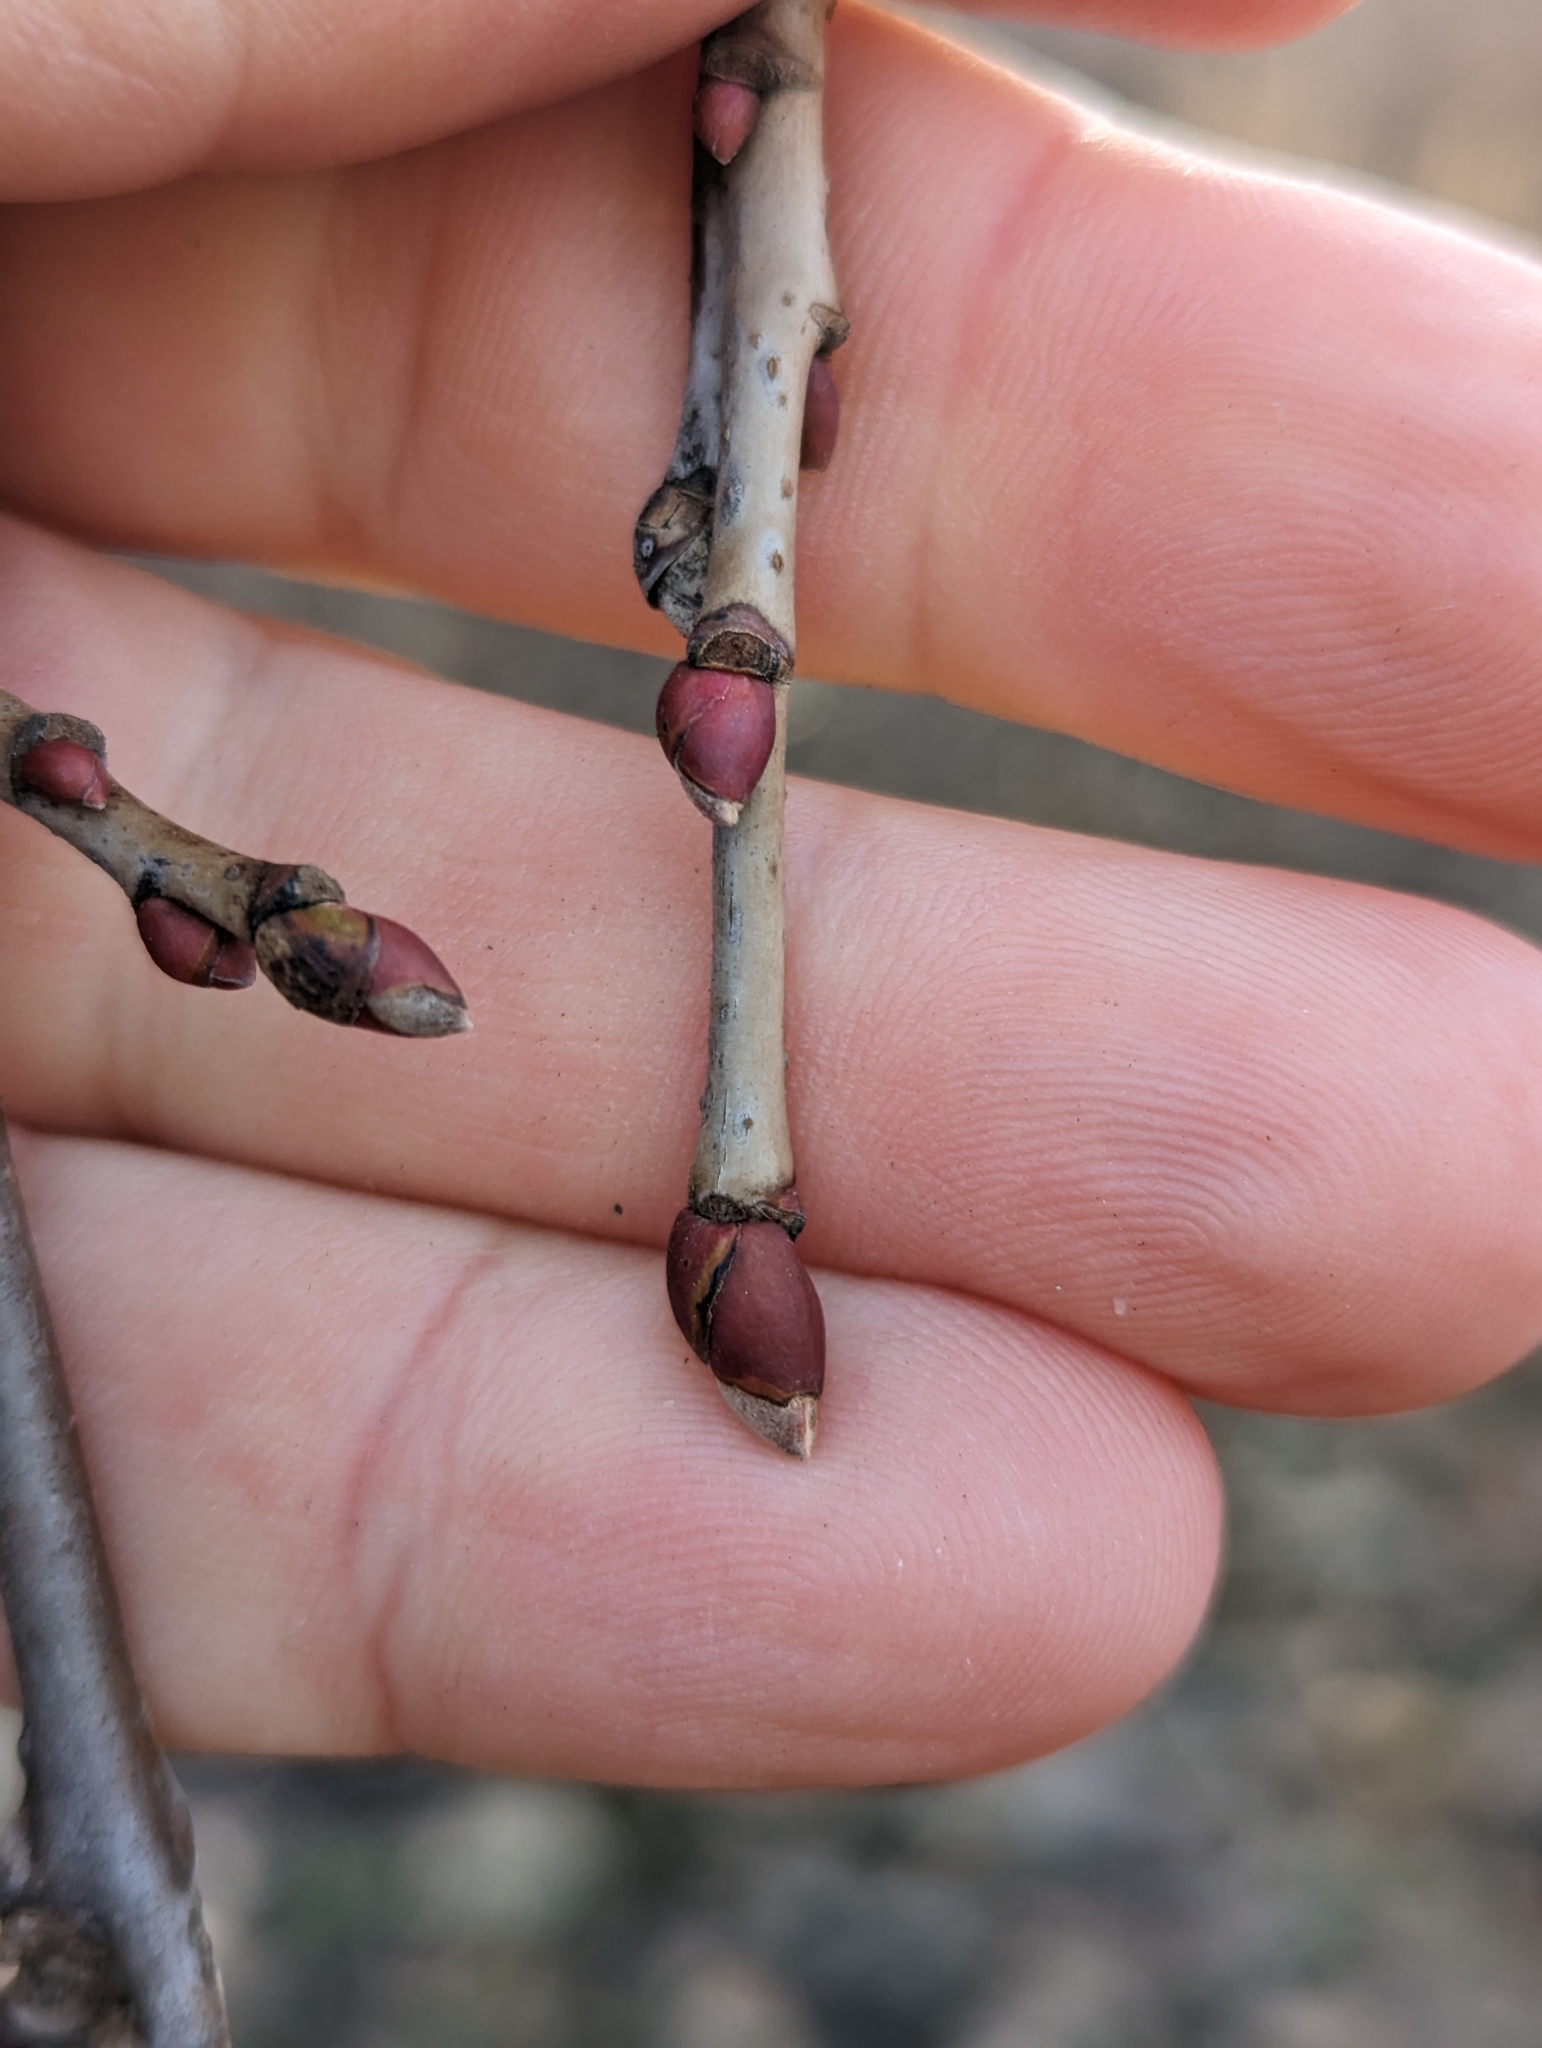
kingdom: Plantae
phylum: Tracheophyta
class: Magnoliopsida
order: Malvales
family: Malvaceae
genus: Tilia
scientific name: Tilia americana
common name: Basswood
